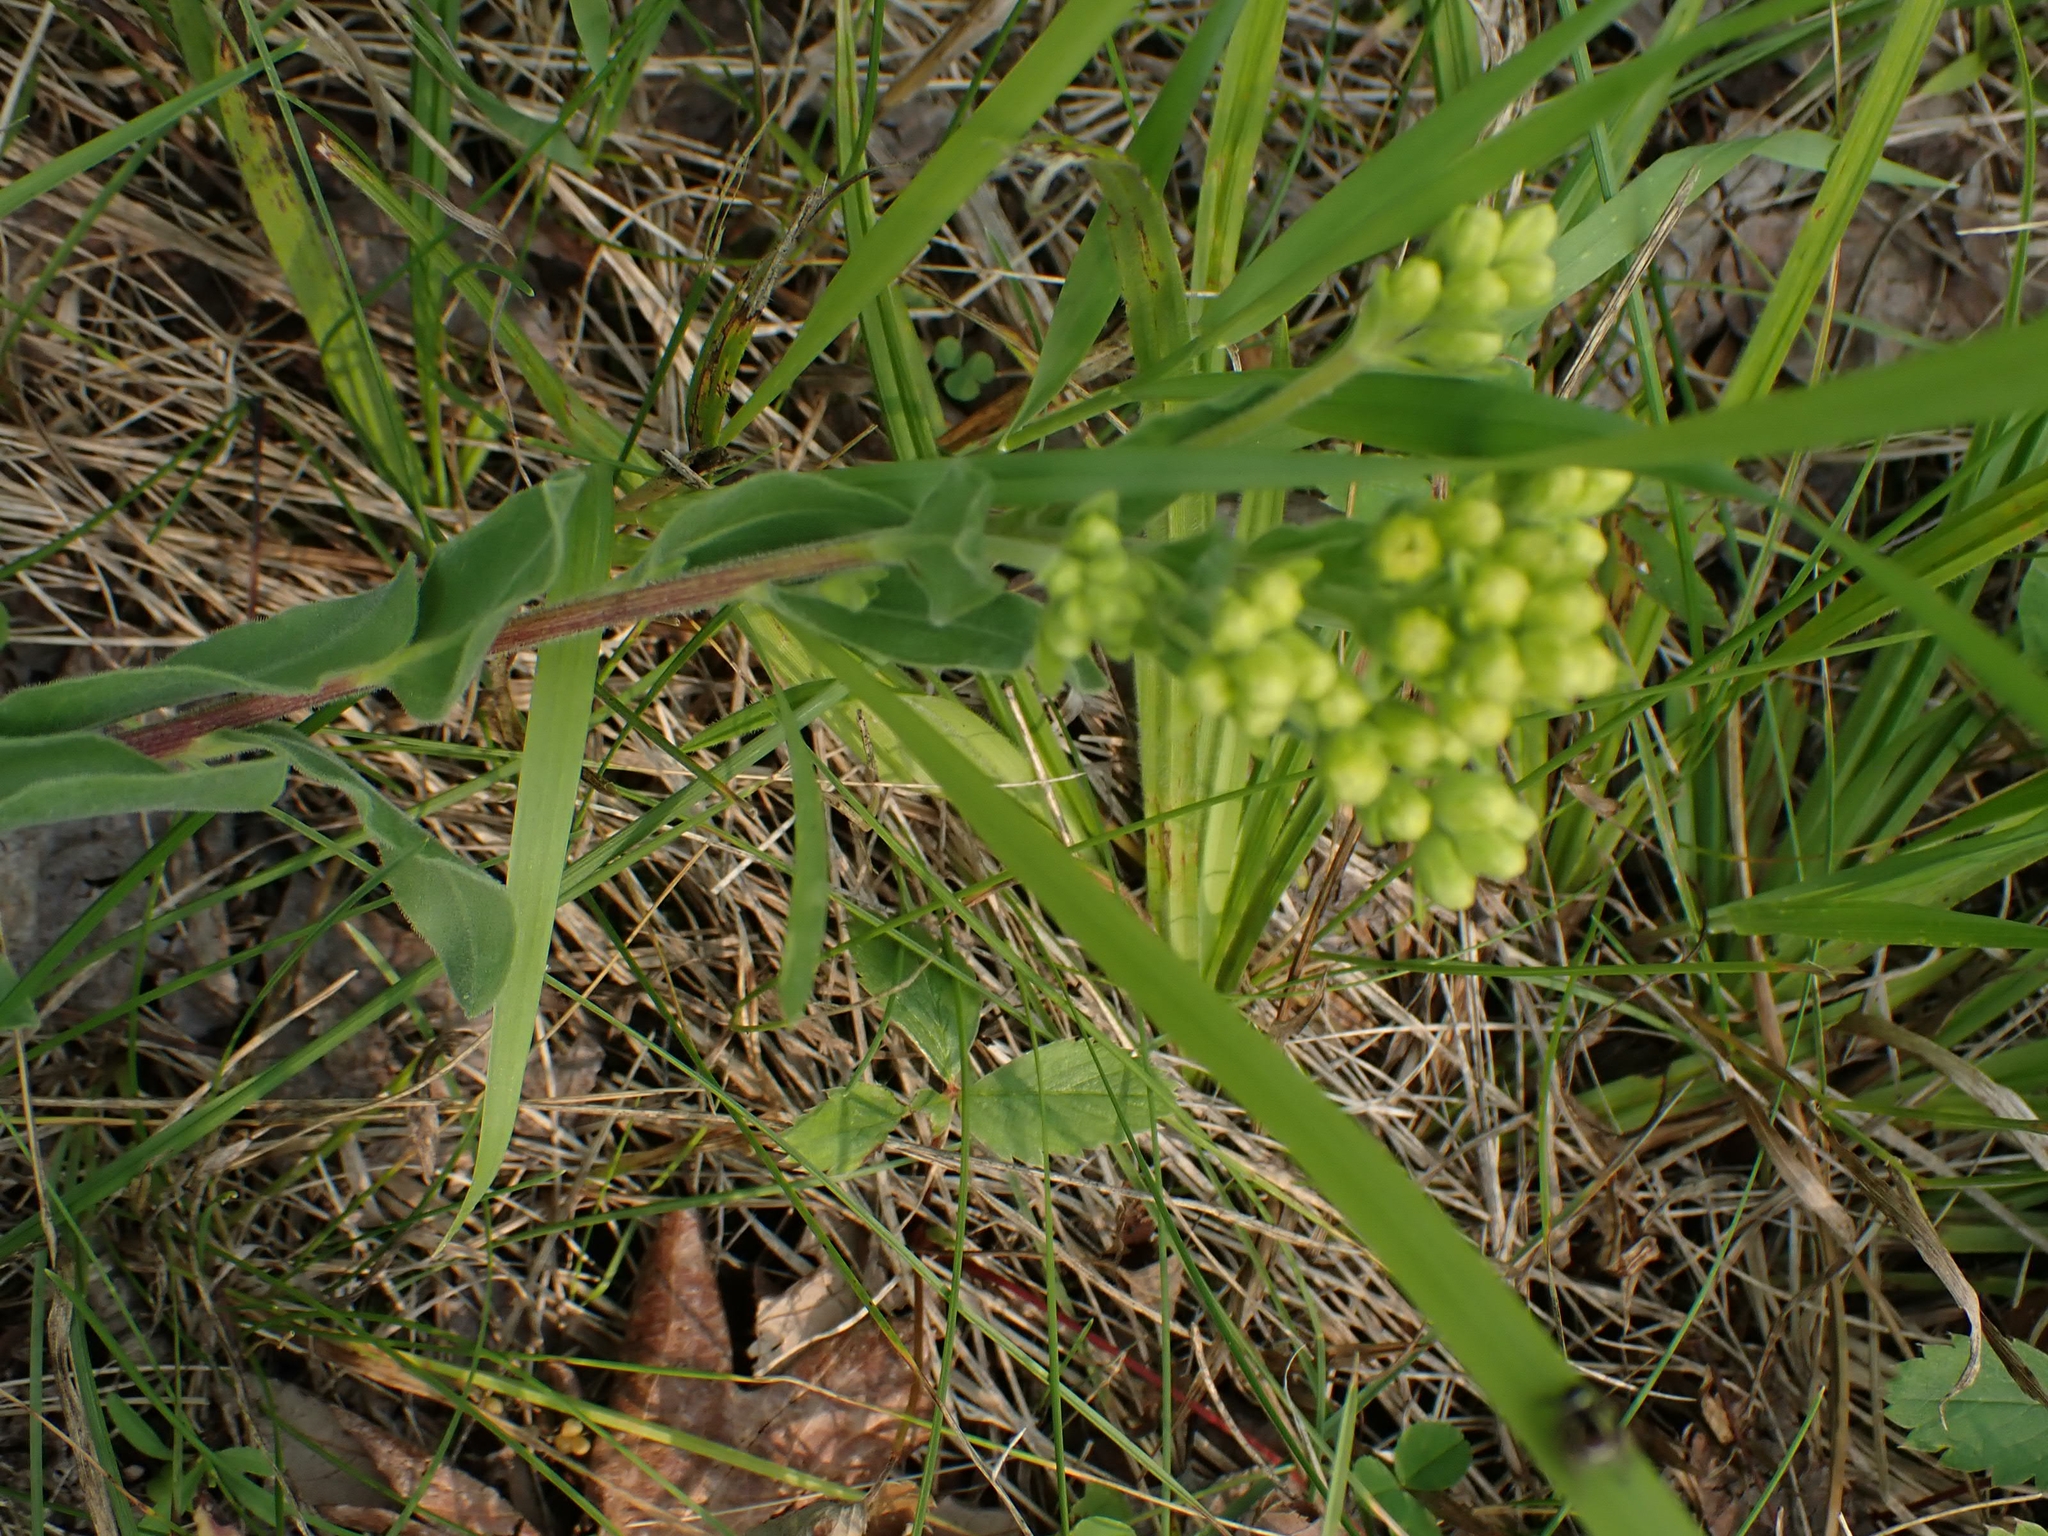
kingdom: Plantae
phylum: Tracheophyta
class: Magnoliopsida
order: Asterales
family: Asteraceae
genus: Solidago
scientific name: Solidago rigida
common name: Rigid goldenrod
